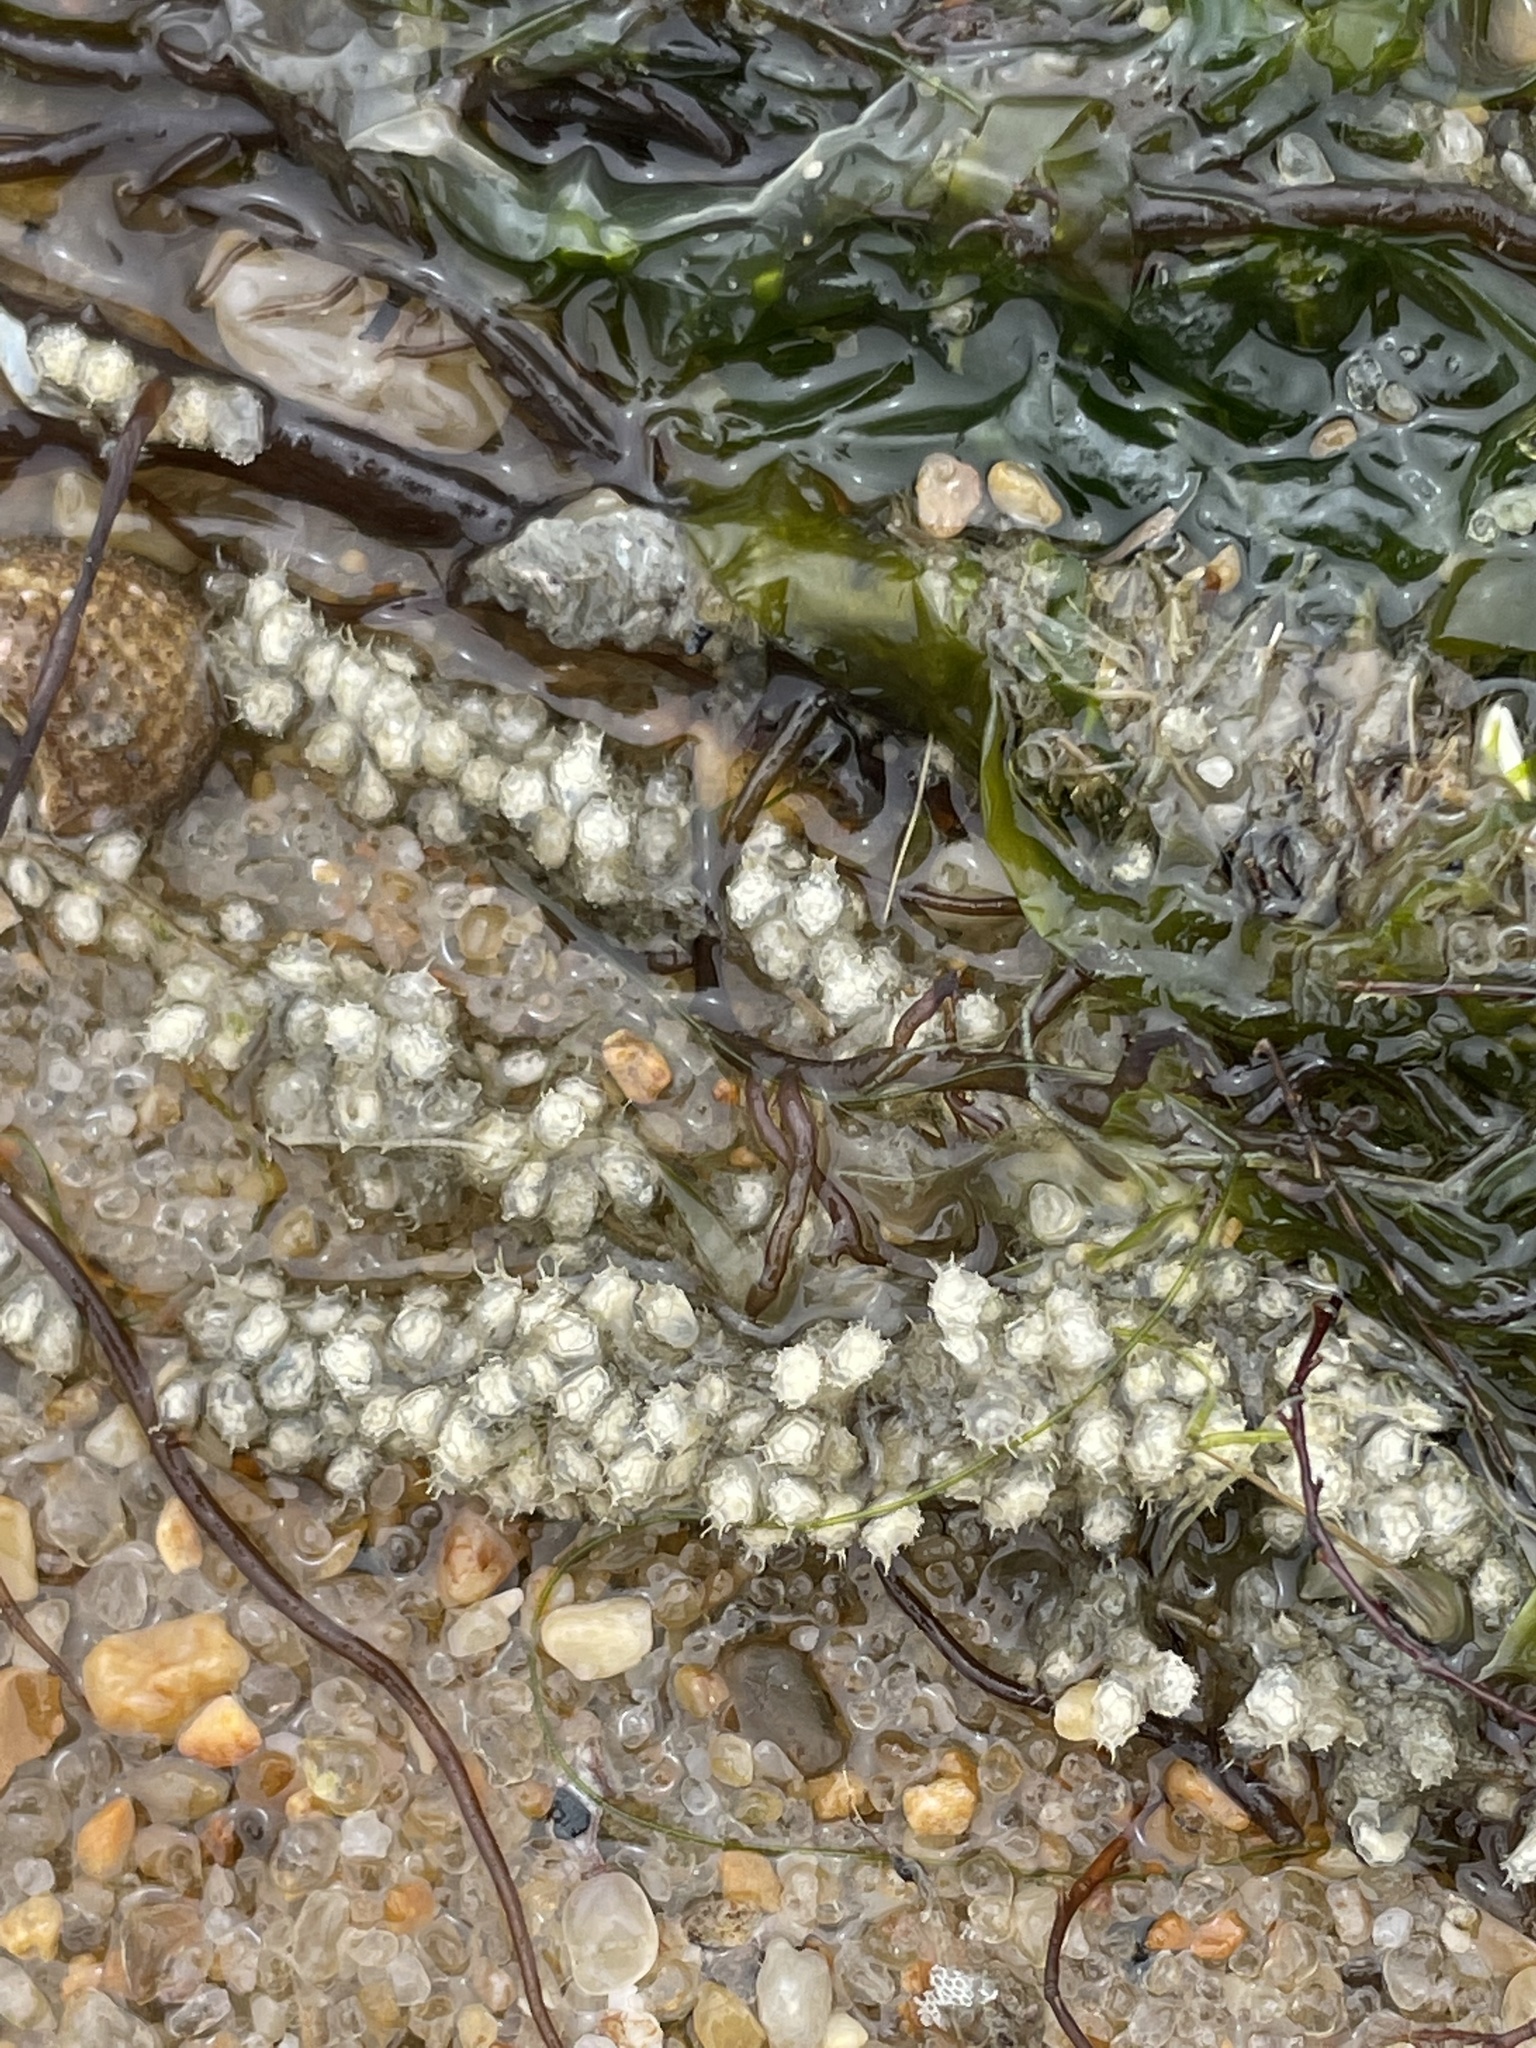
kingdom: Animalia
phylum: Mollusca
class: Gastropoda
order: Neogastropoda
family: Nassariidae
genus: Ilyanassa
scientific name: Ilyanassa obsoleta
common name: Eastern mudsnail
